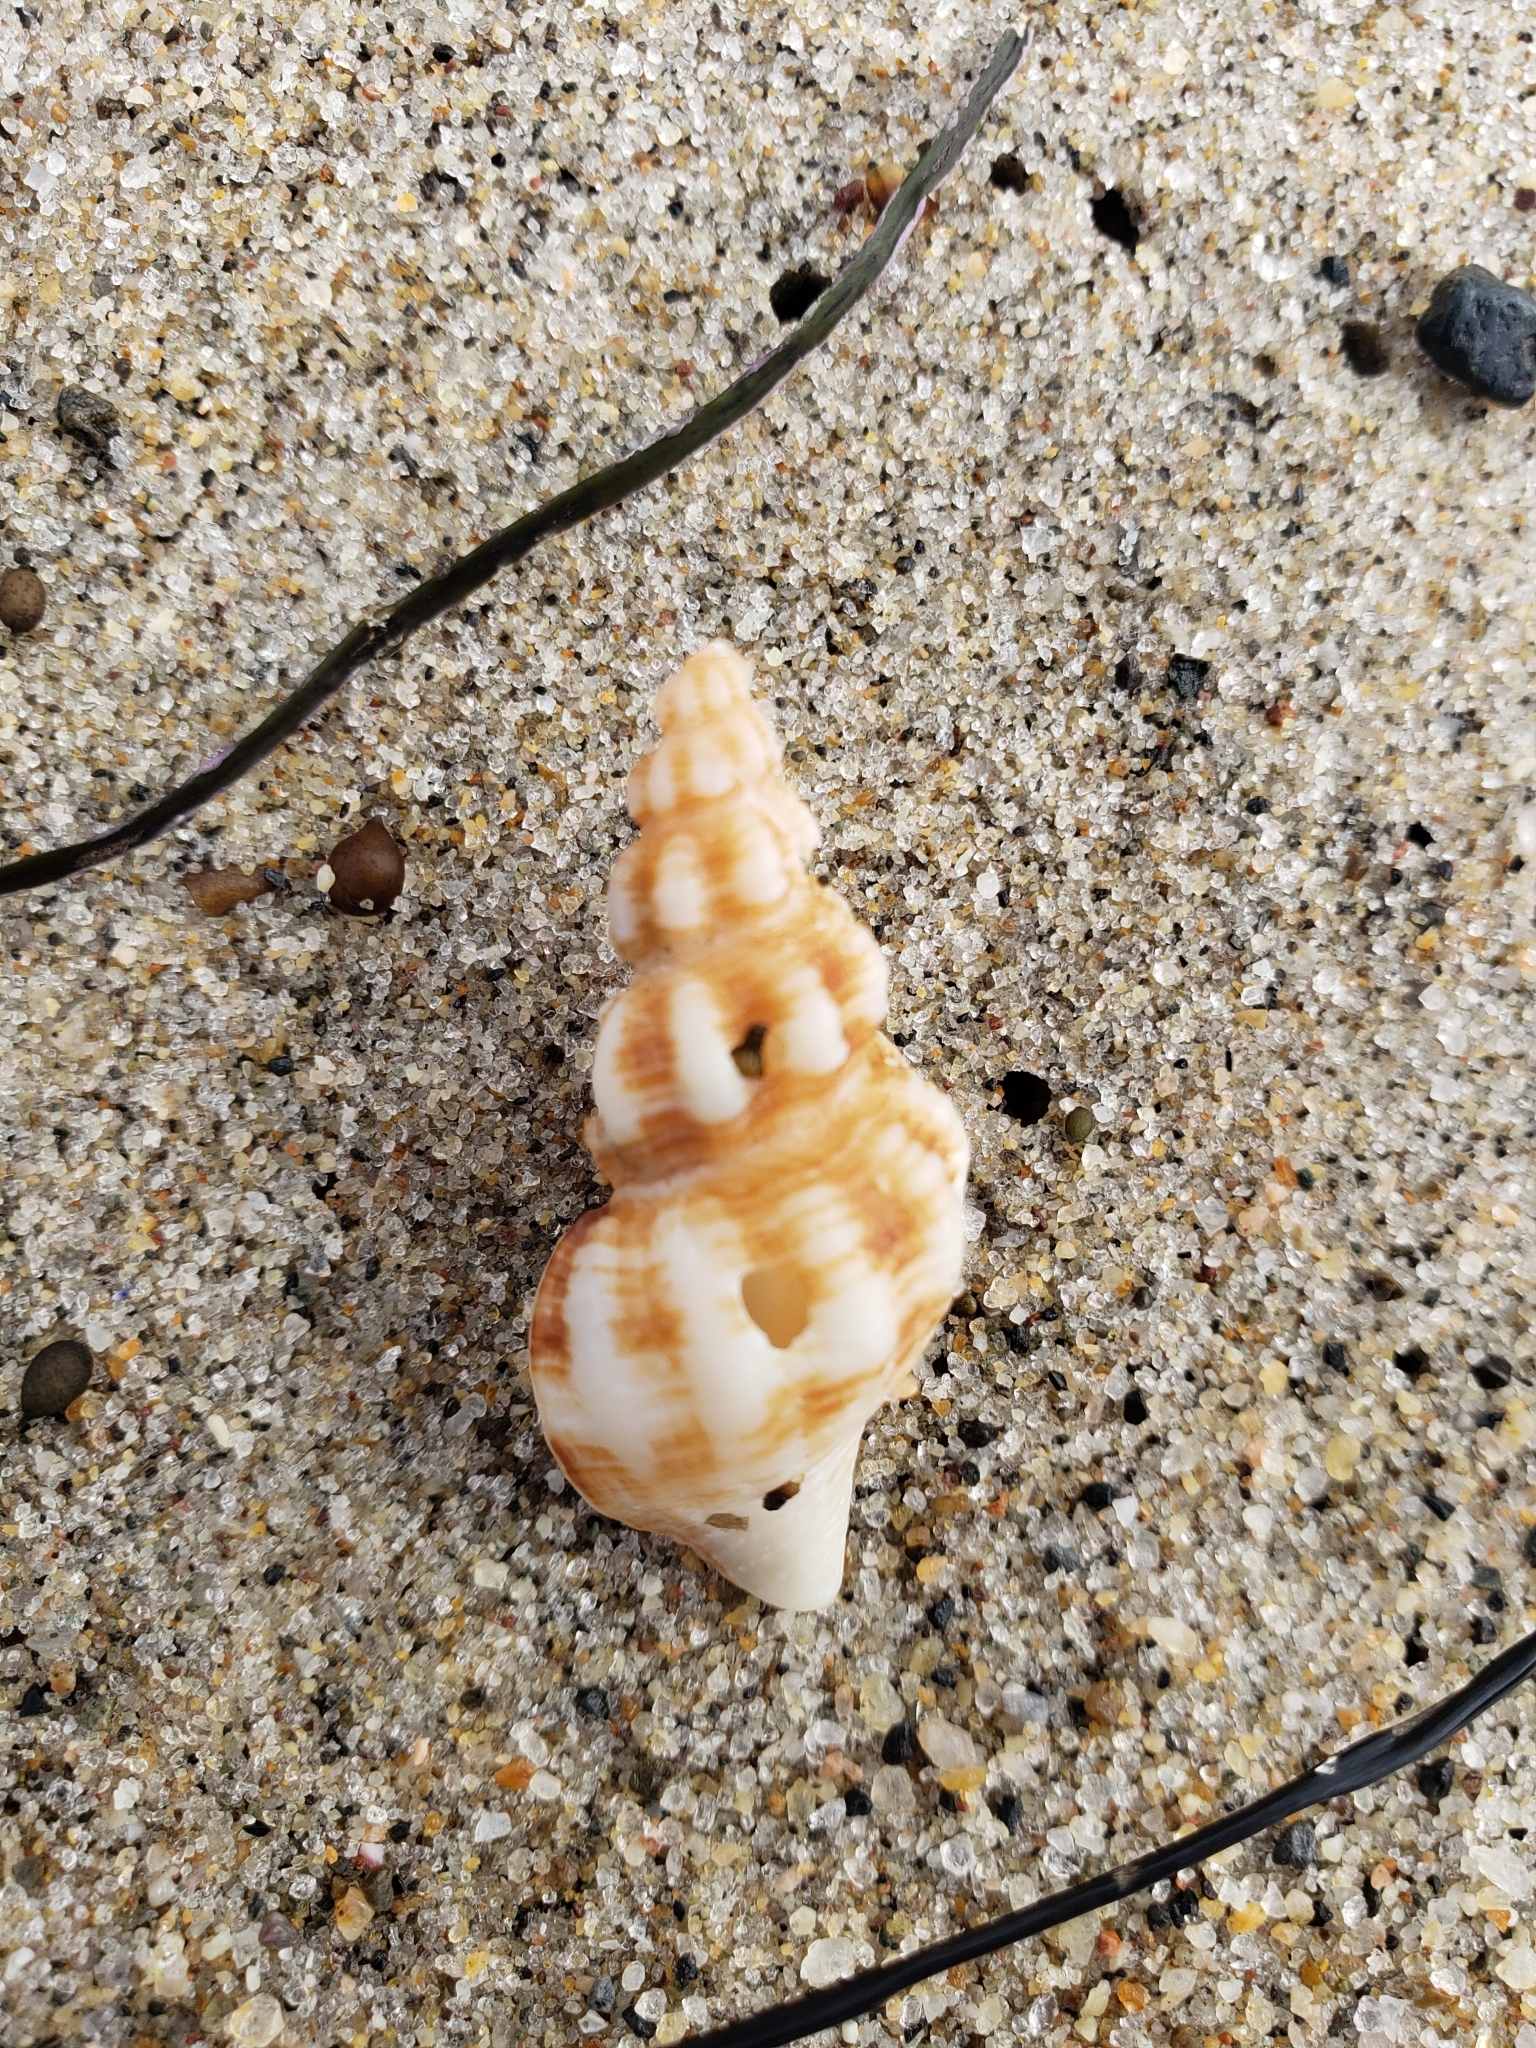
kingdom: Animalia
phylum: Mollusca
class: Gastropoda
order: Neogastropoda
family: Fasciolariidae
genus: Hesperaptyxis
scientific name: Hesperaptyxis luteopictus
